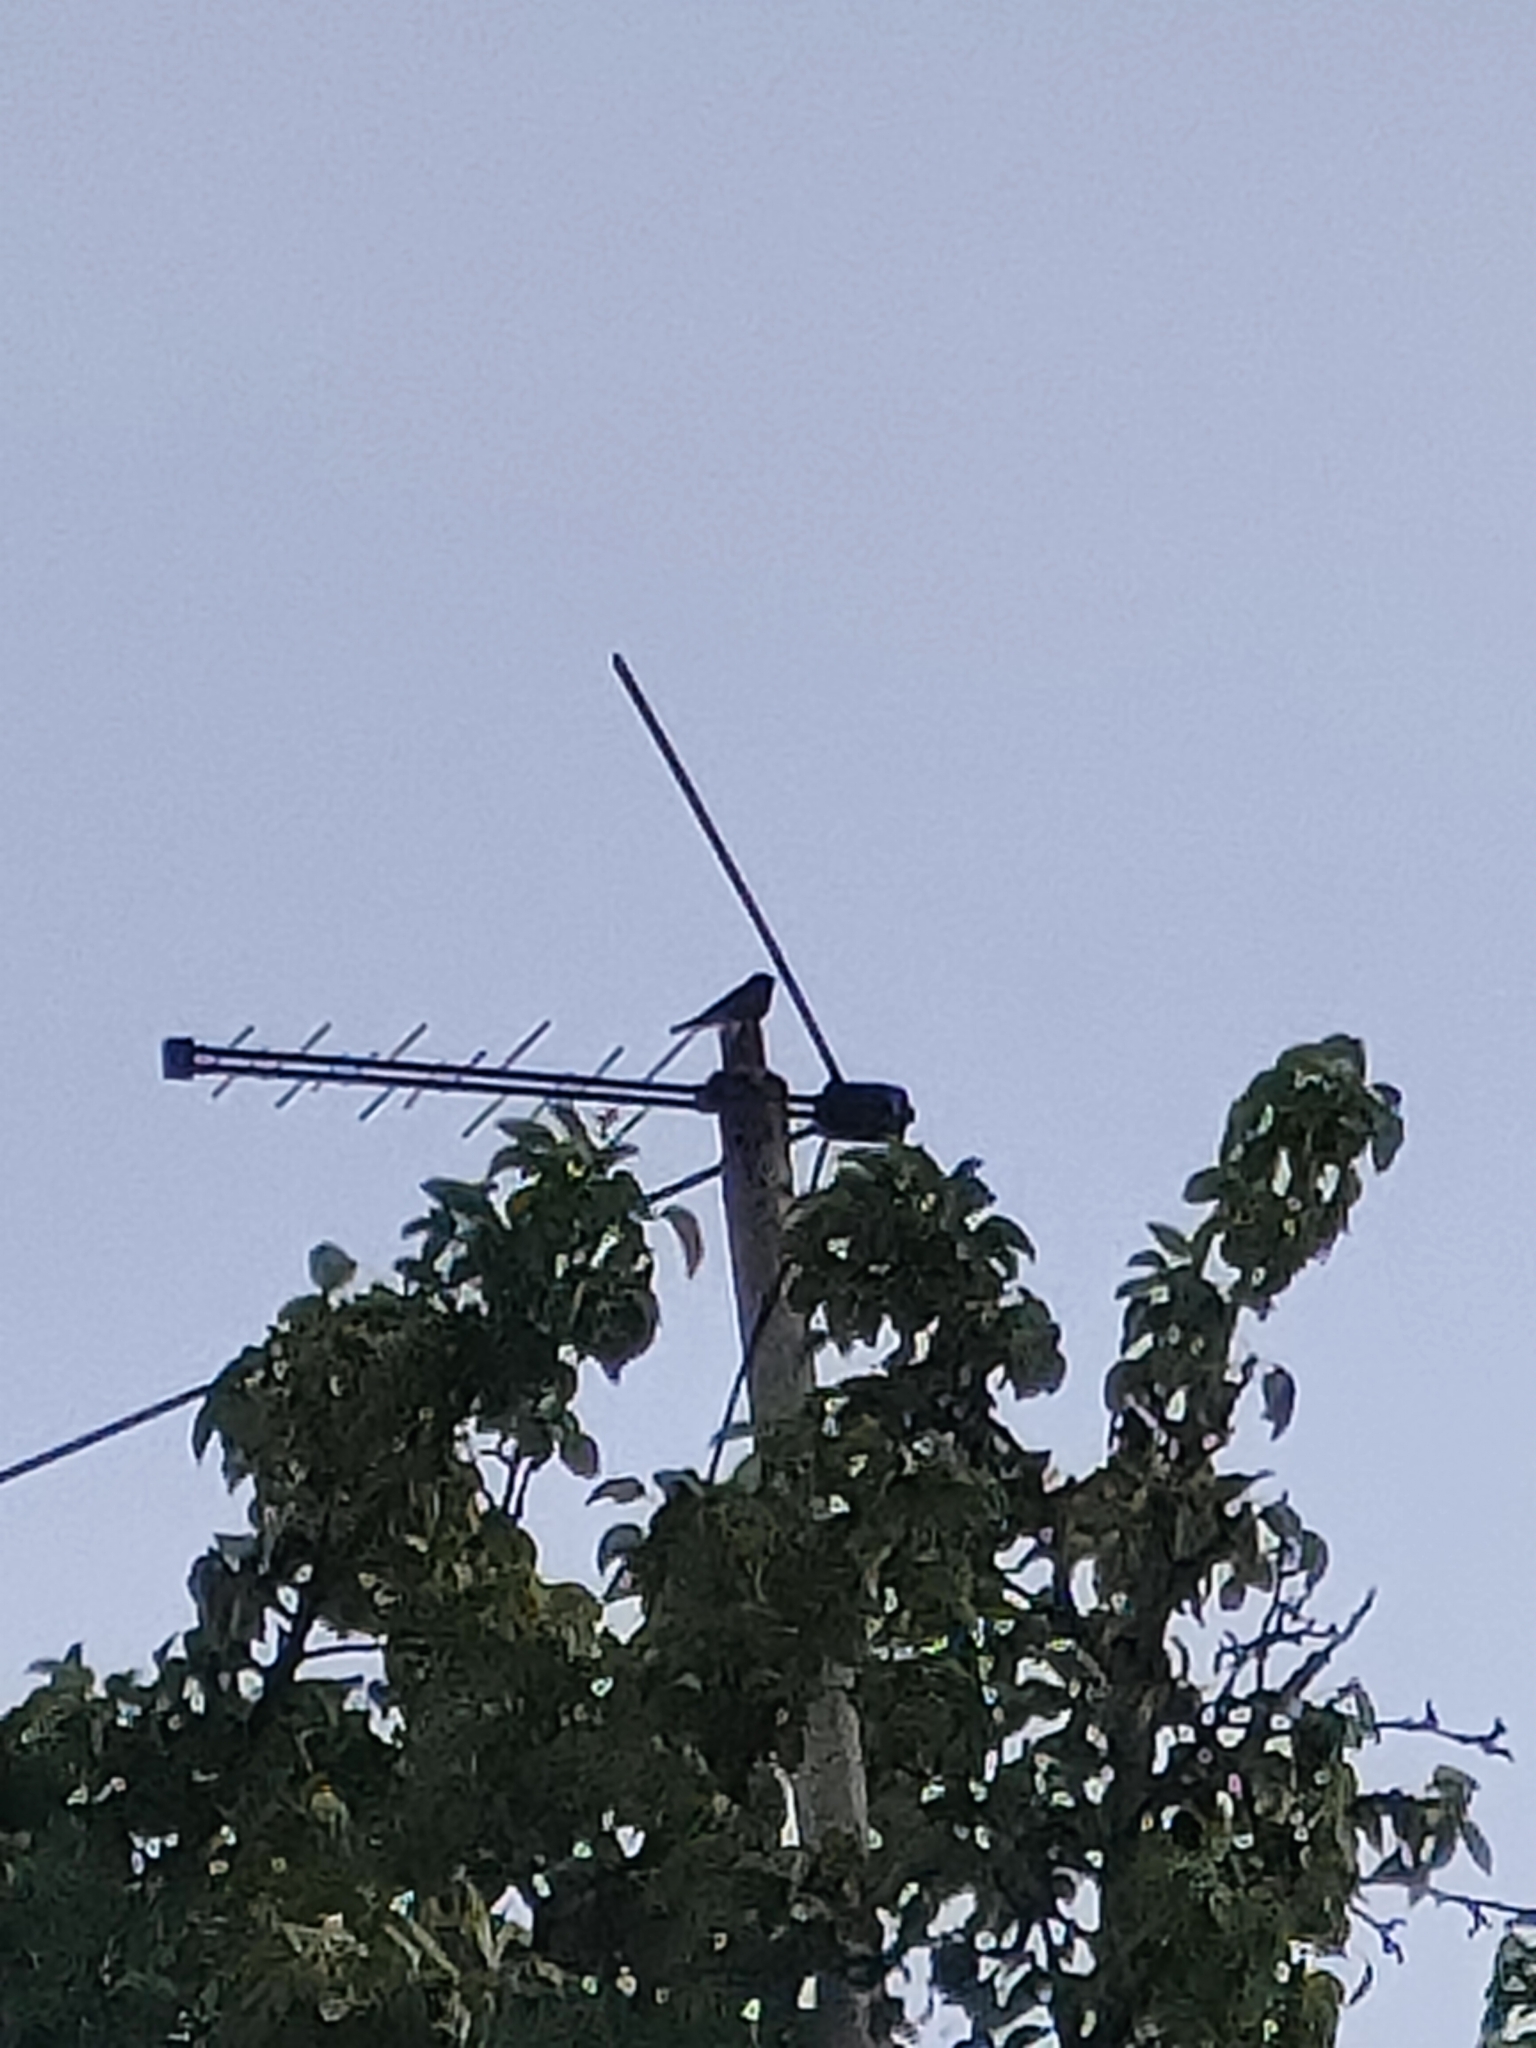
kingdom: Animalia
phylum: Chordata
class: Aves
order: Passeriformes
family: Muscicapidae
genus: Phoenicurus
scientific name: Phoenicurus ochruros
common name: Black redstart
